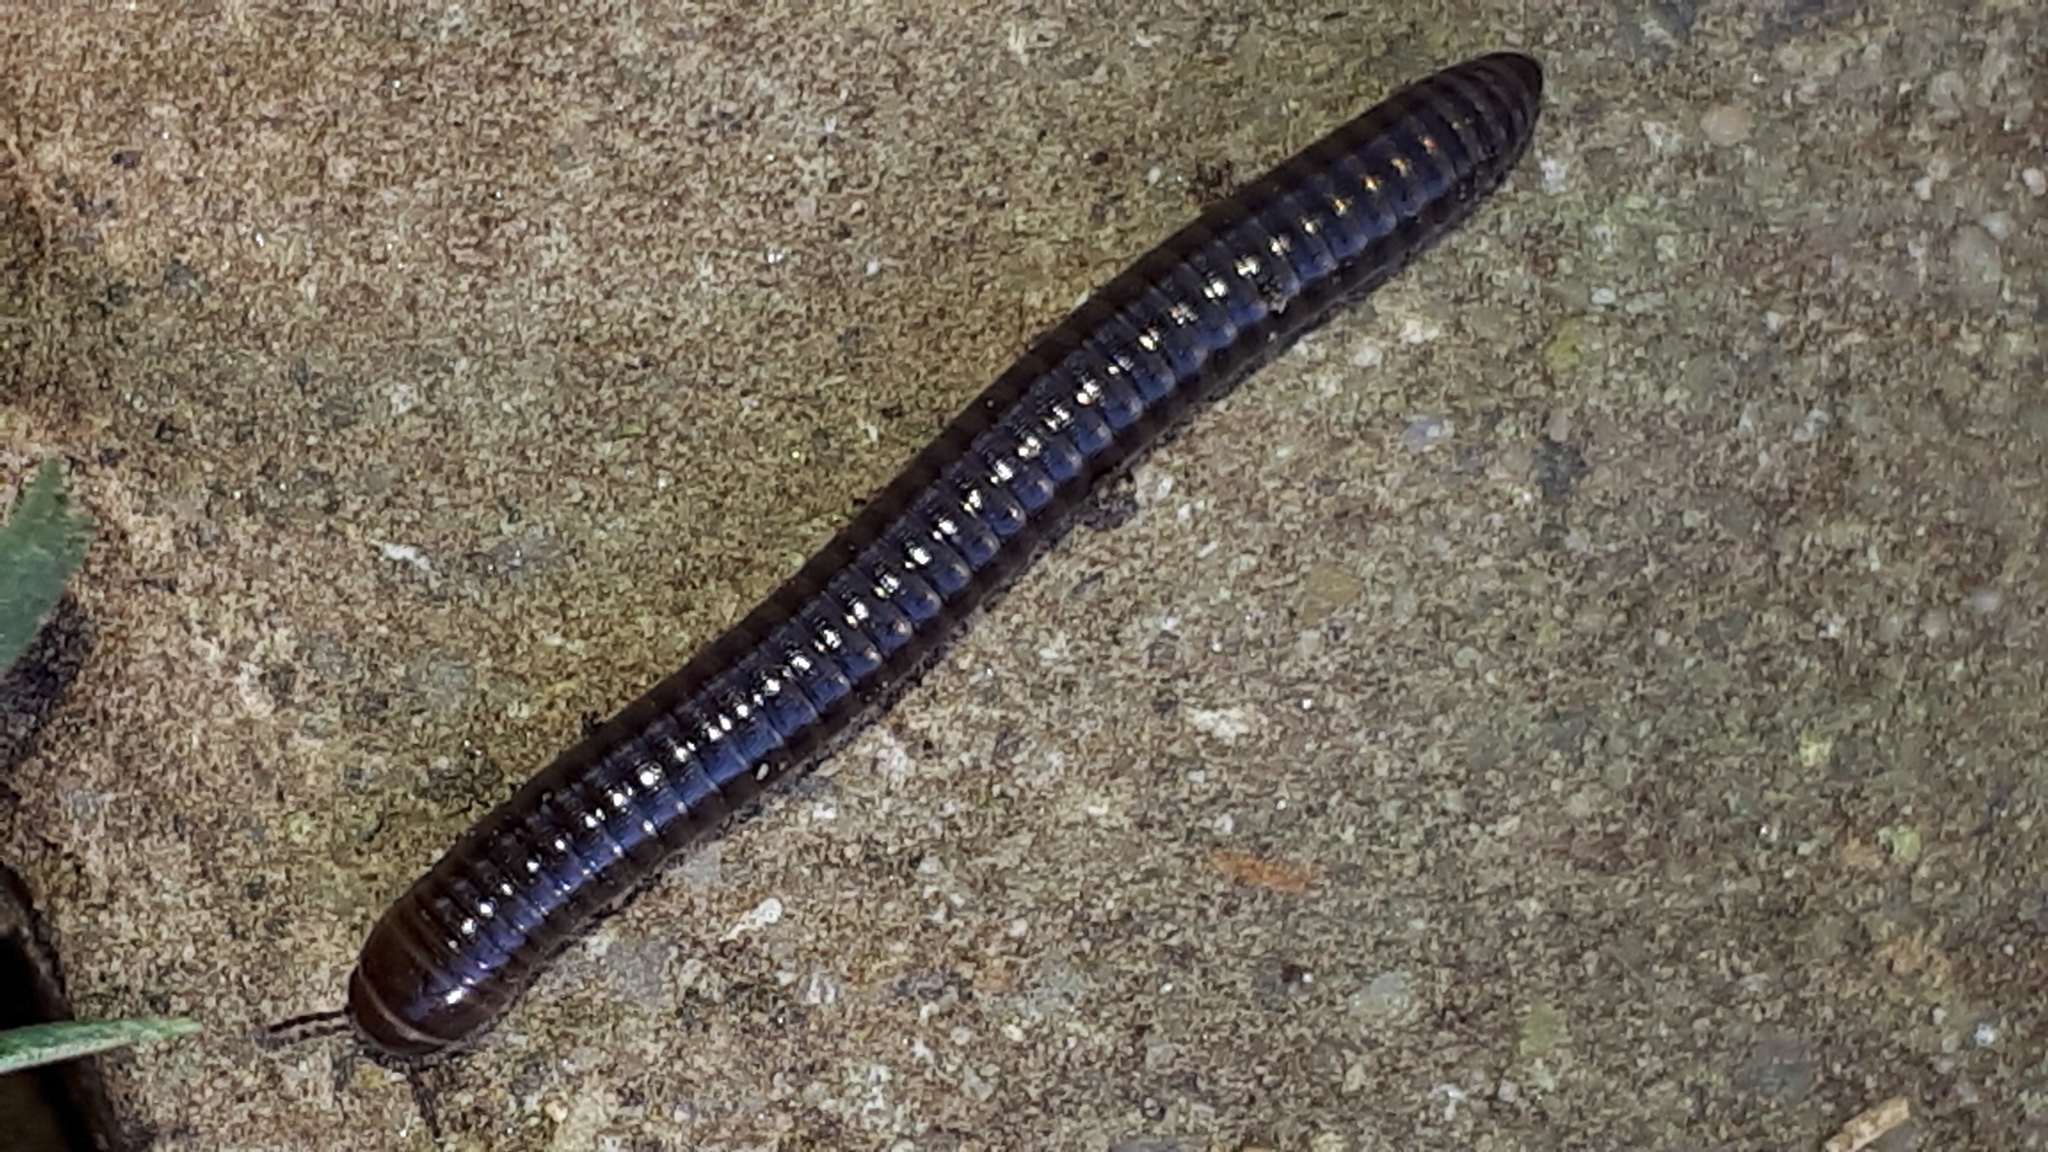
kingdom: Animalia
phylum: Arthropoda
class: Diplopoda
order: Julida
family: Julidae
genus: Cylindroiulus
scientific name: Cylindroiulus caeruleocinctus
